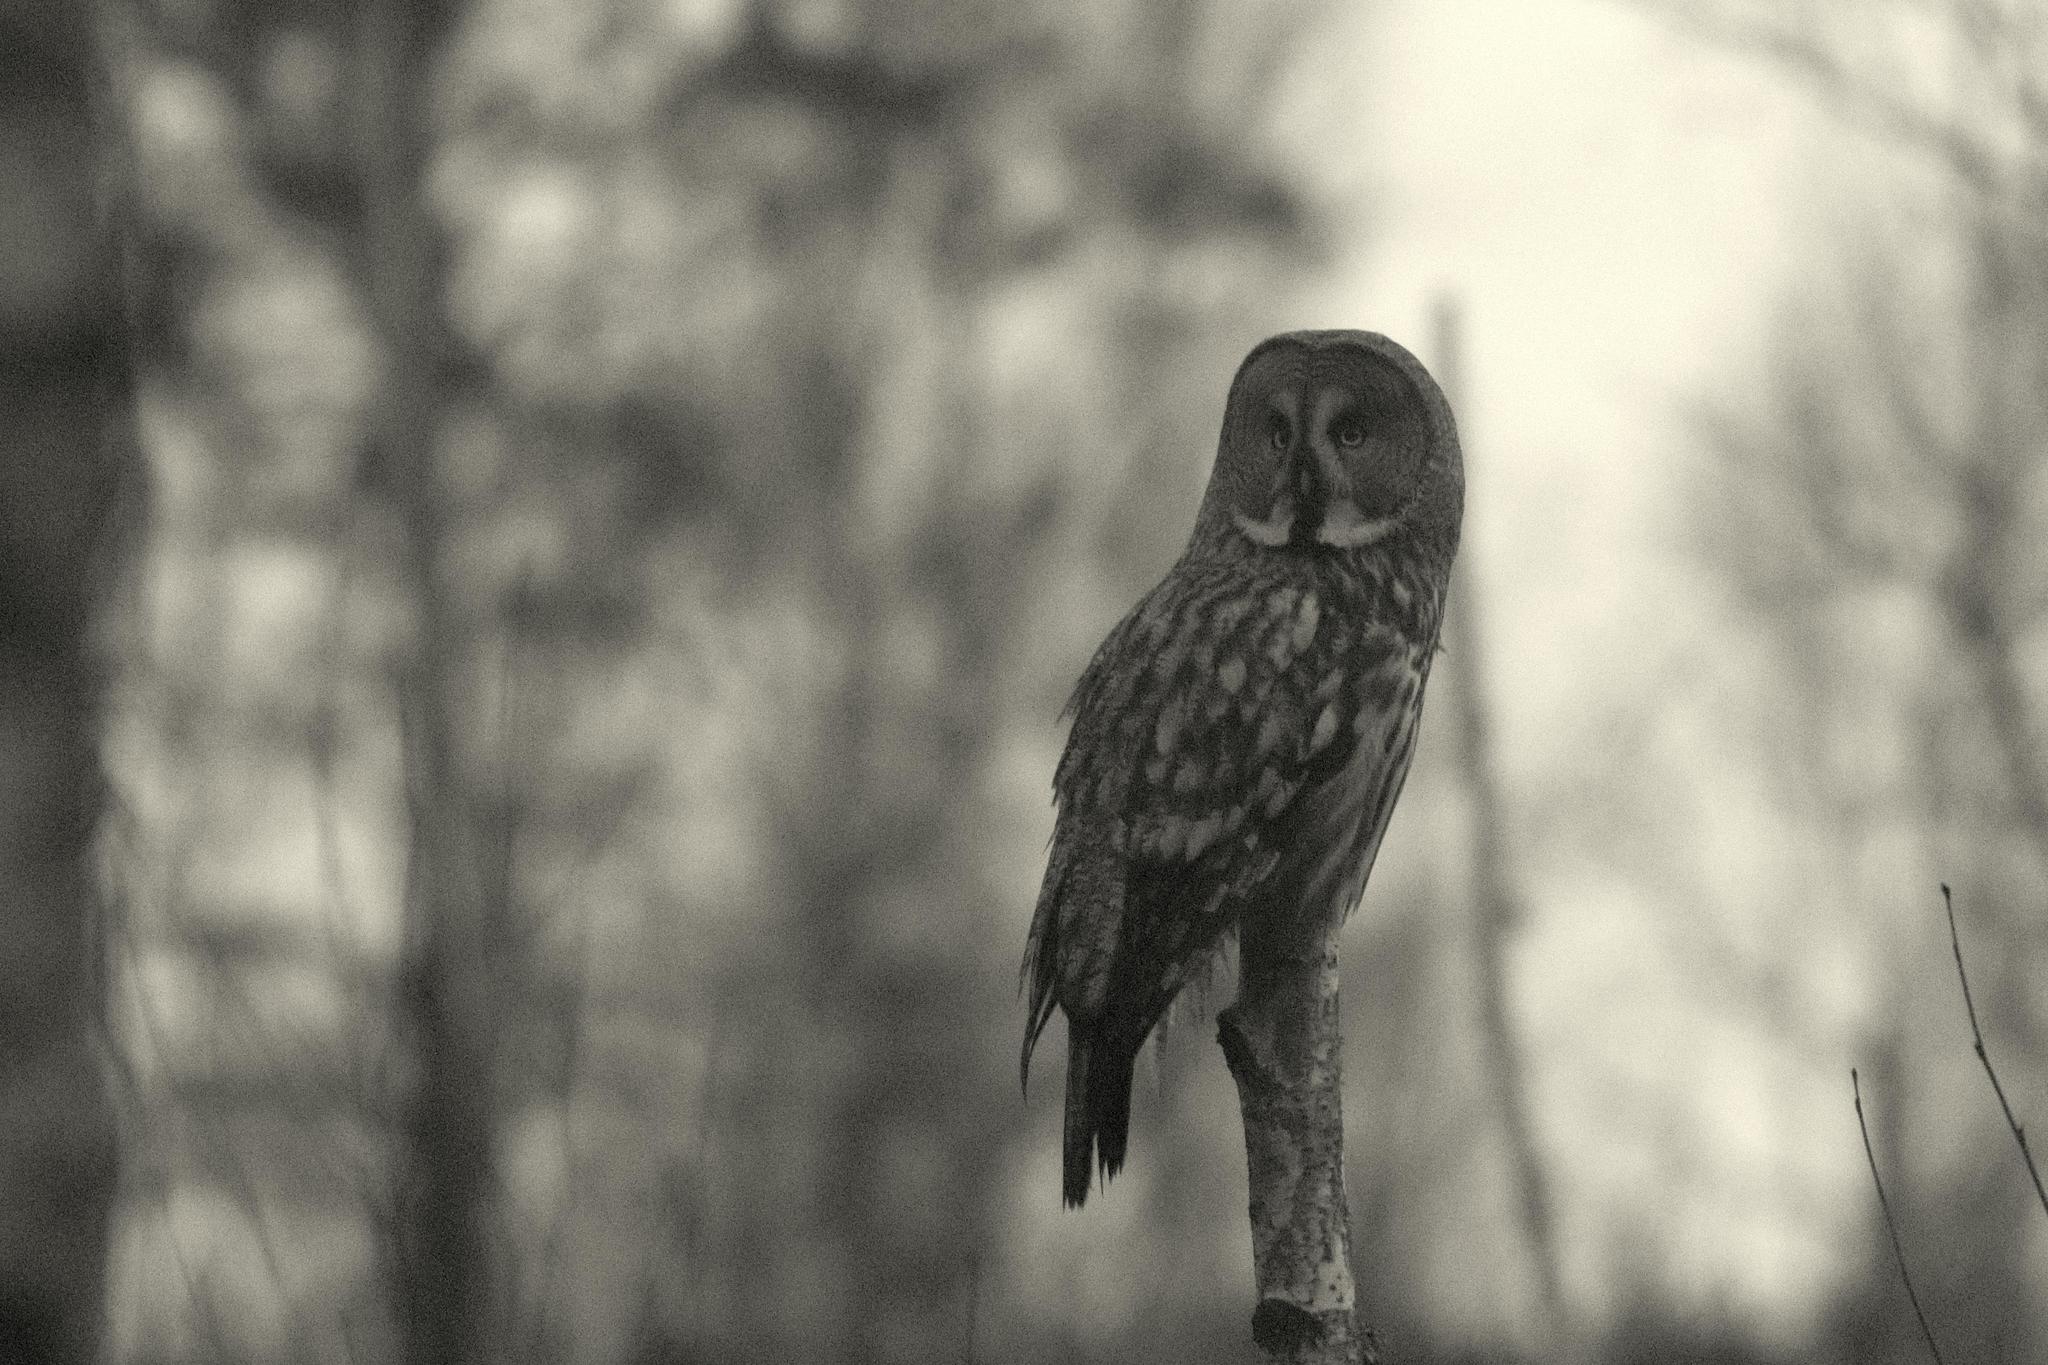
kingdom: Animalia
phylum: Chordata
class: Aves
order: Strigiformes
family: Strigidae
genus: Strix
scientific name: Strix nebulosa
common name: Great grey owl
